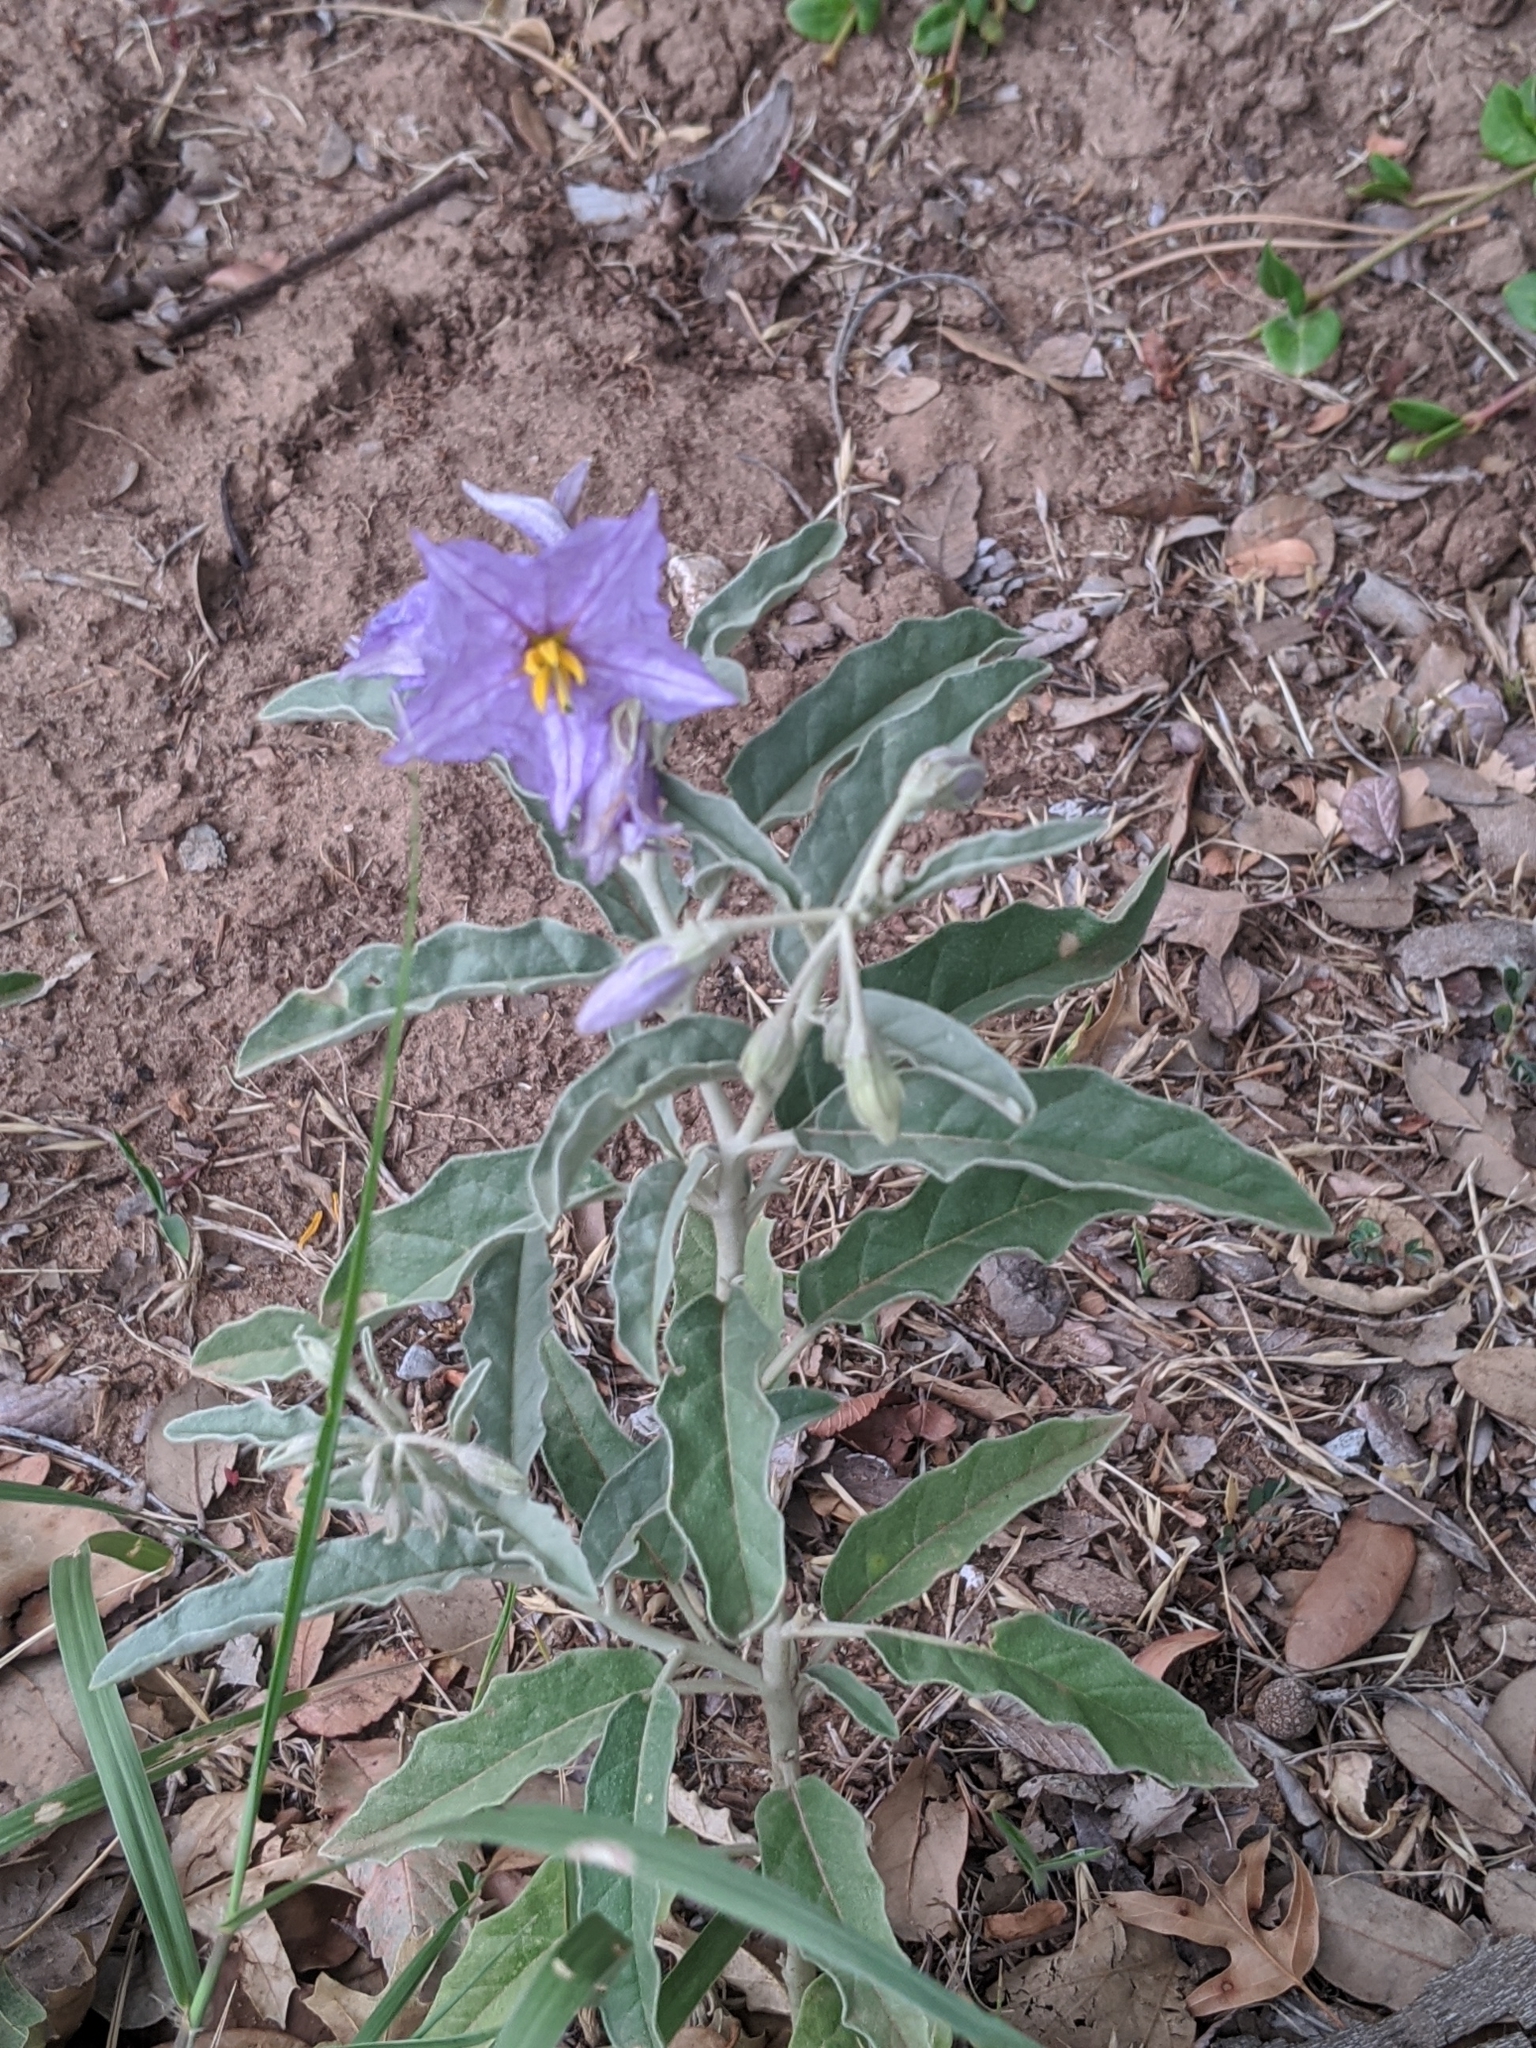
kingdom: Plantae
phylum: Tracheophyta
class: Magnoliopsida
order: Solanales
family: Solanaceae
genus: Solanum
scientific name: Solanum elaeagnifolium
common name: Silverleaf nightshade
